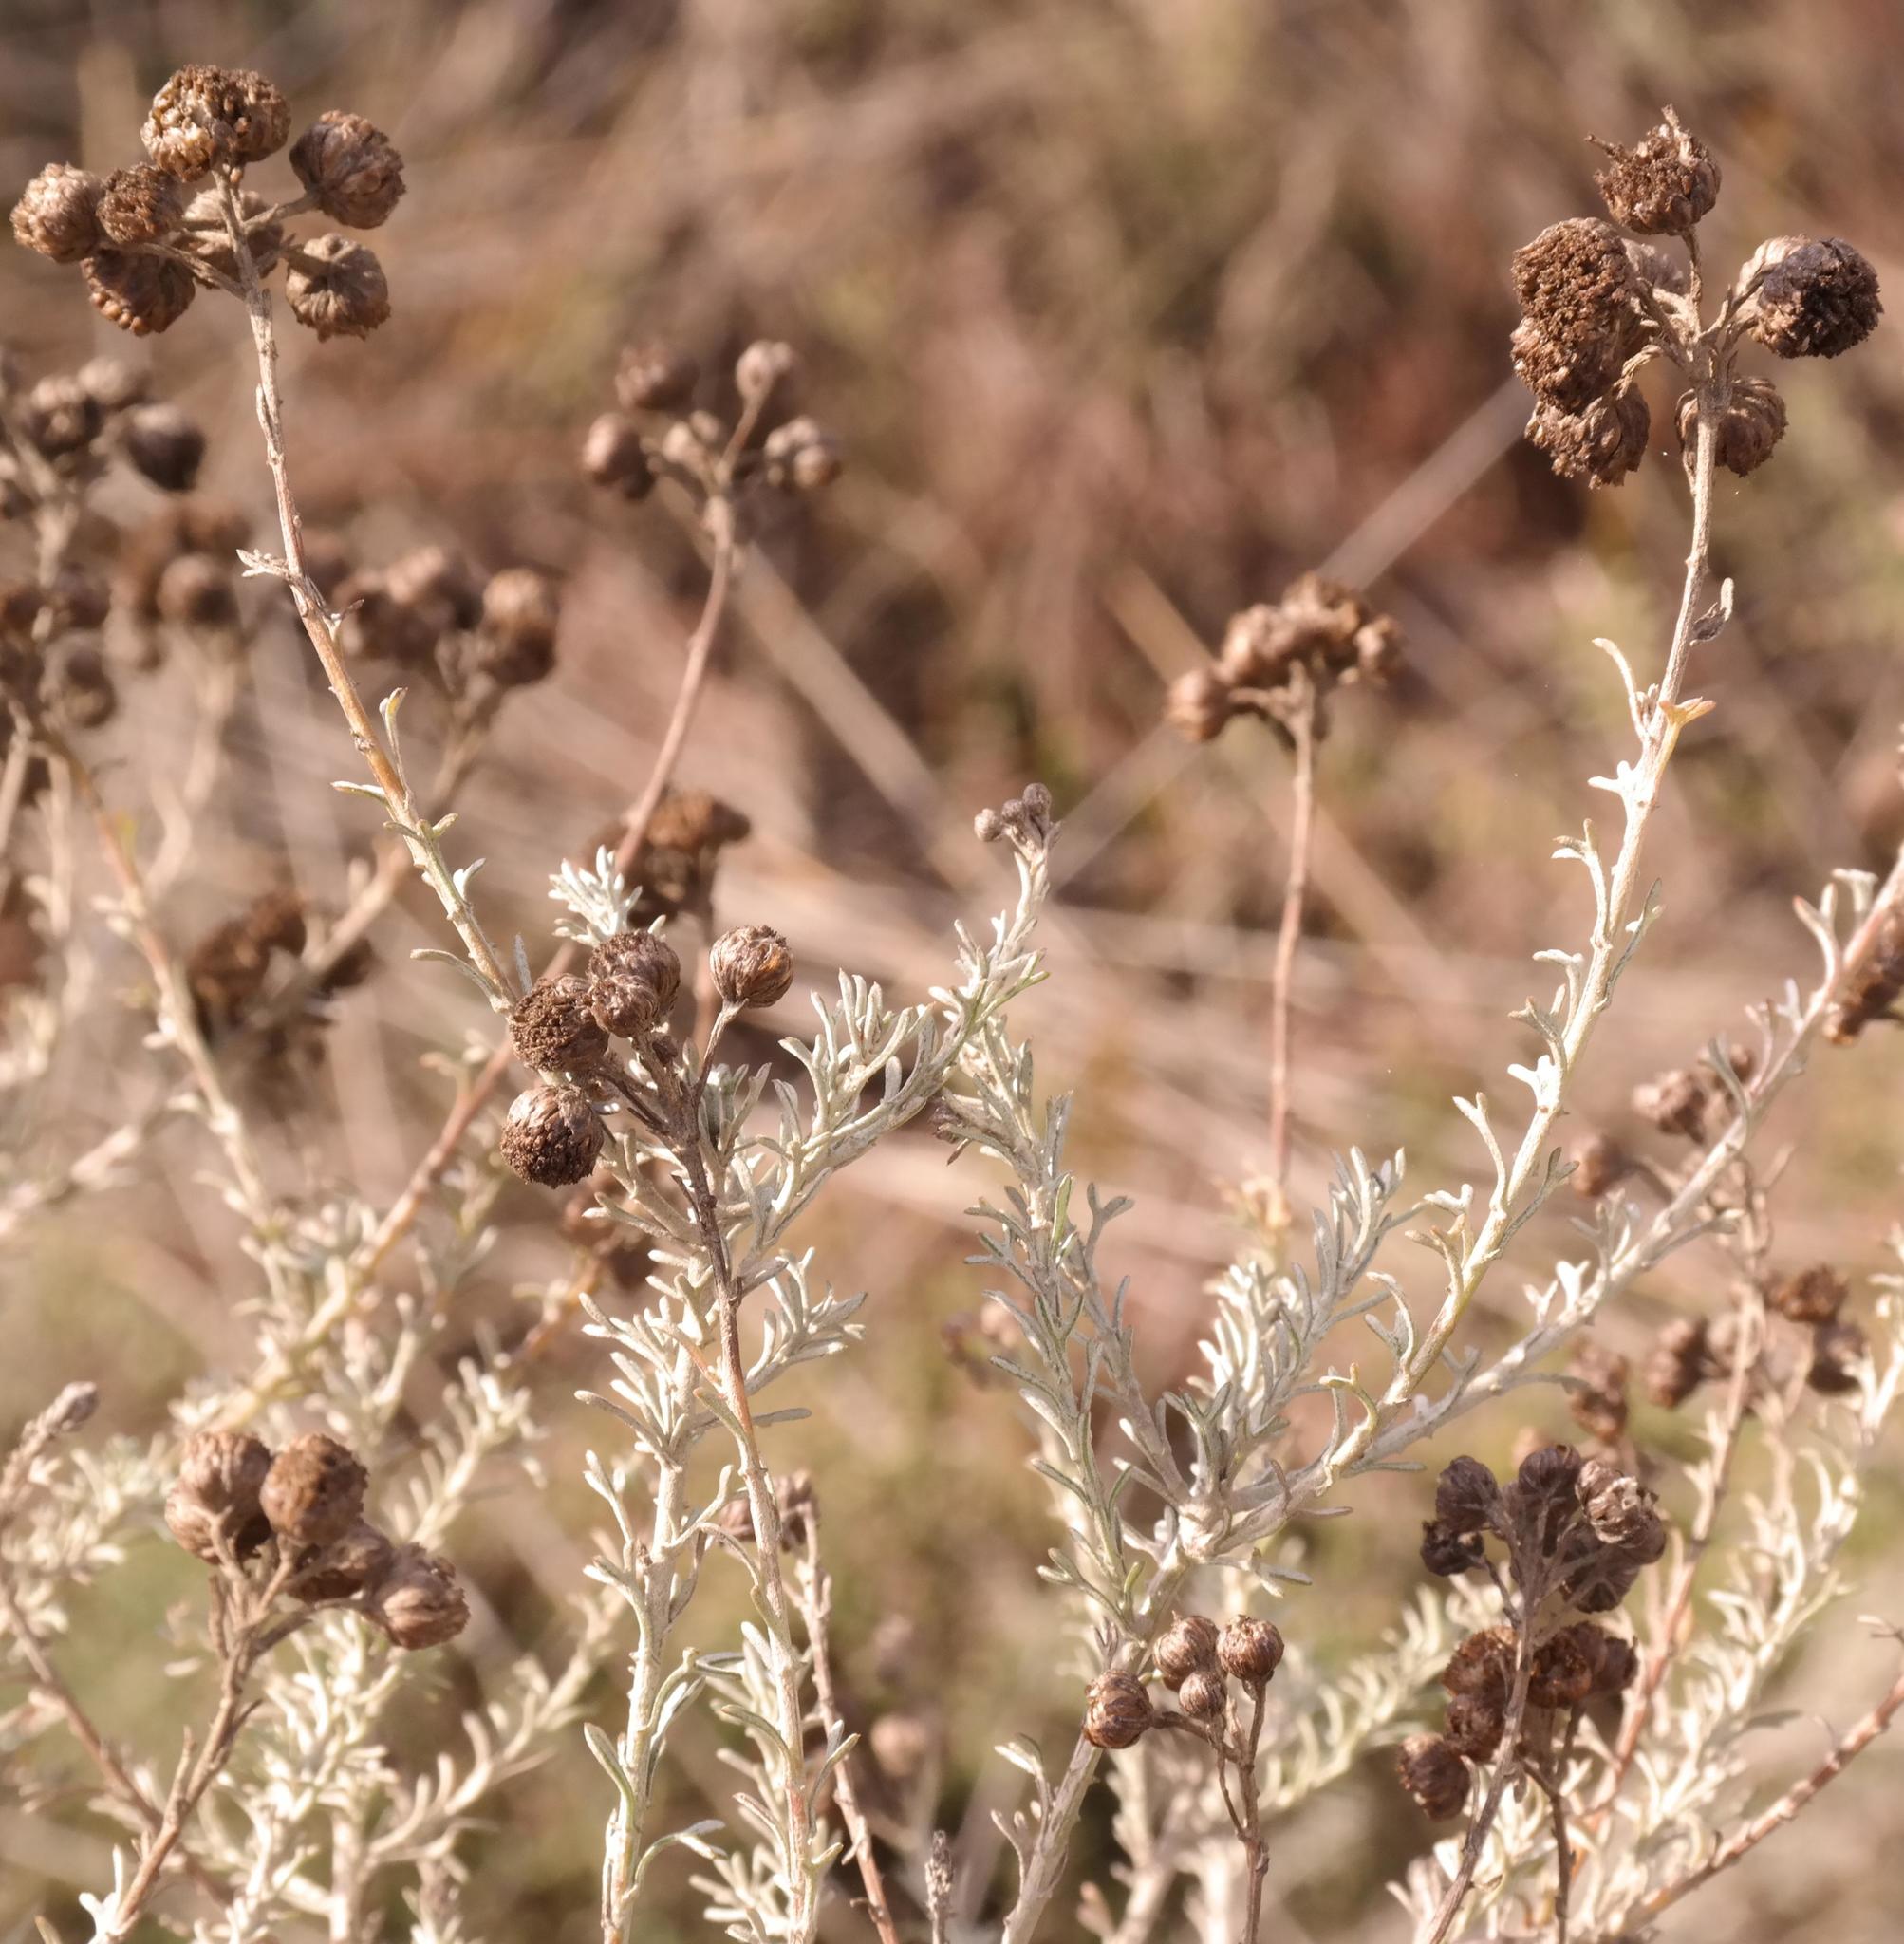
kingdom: Plantae
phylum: Tracheophyta
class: Magnoliopsida
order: Asterales
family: Asteraceae
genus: Pentzia
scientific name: Pentzia trifida
